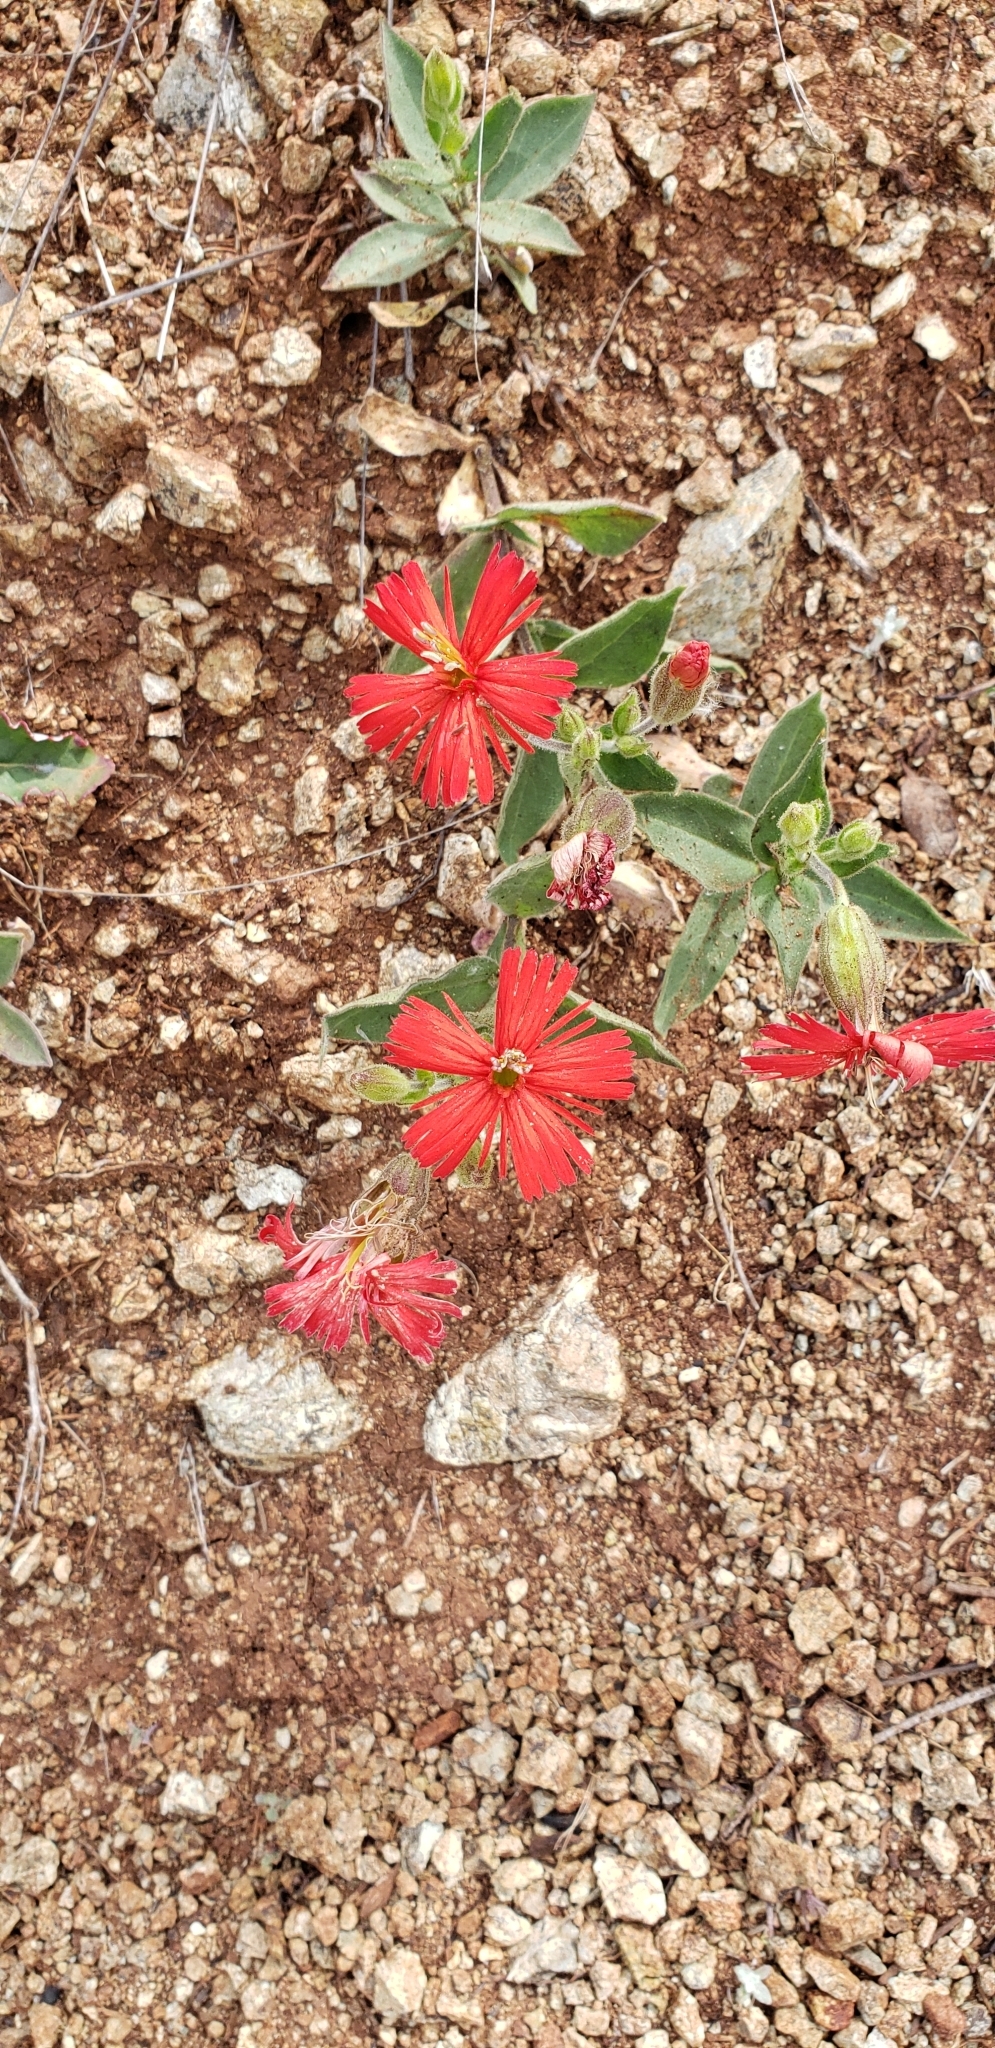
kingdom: Plantae
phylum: Tracheophyta
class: Magnoliopsida
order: Caryophyllales
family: Caryophyllaceae
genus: Silene
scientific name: Silene laciniata
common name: Indian-pink
